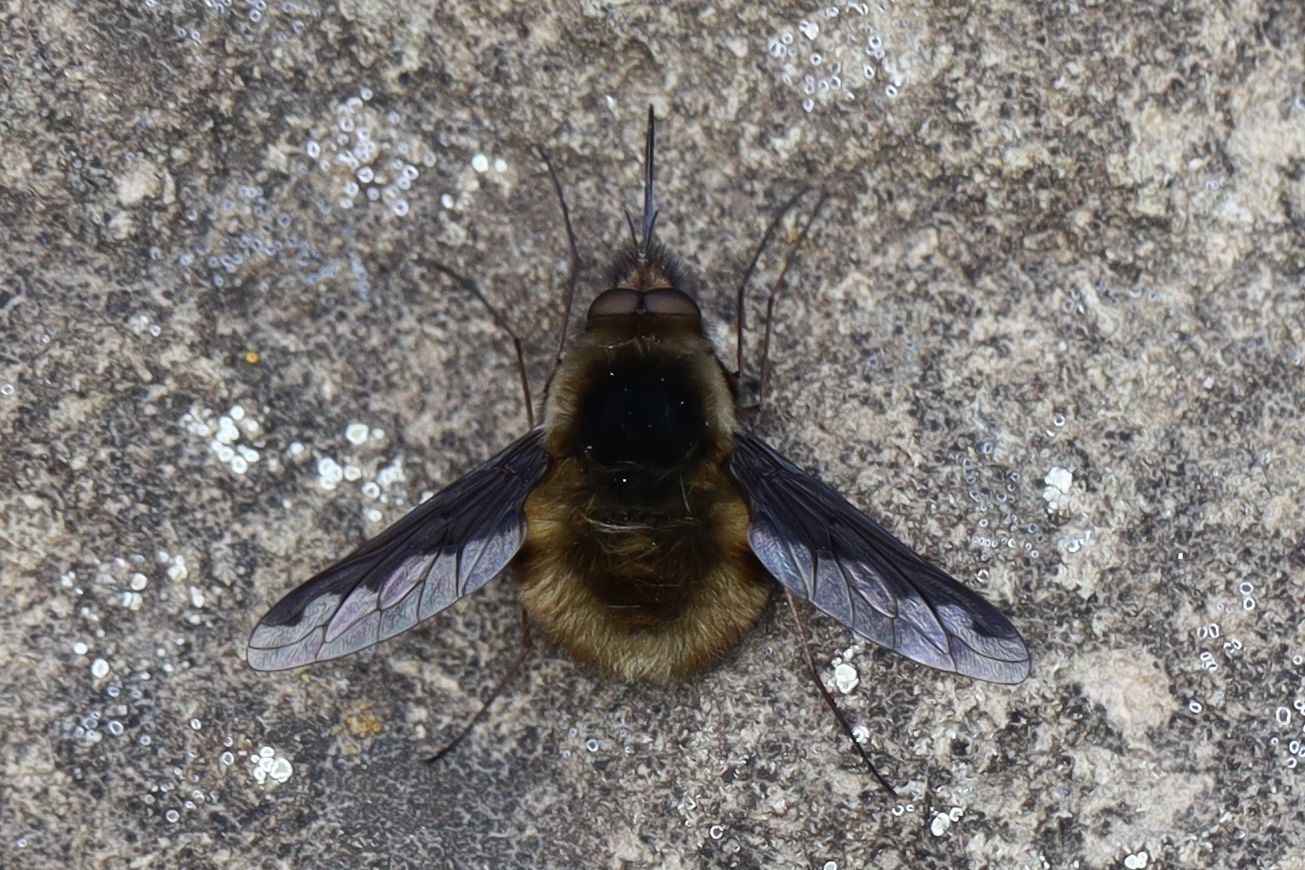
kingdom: Animalia
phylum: Arthropoda
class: Insecta
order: Diptera
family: Bombyliidae
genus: Bombylius
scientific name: Bombylius major
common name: Bee fly
